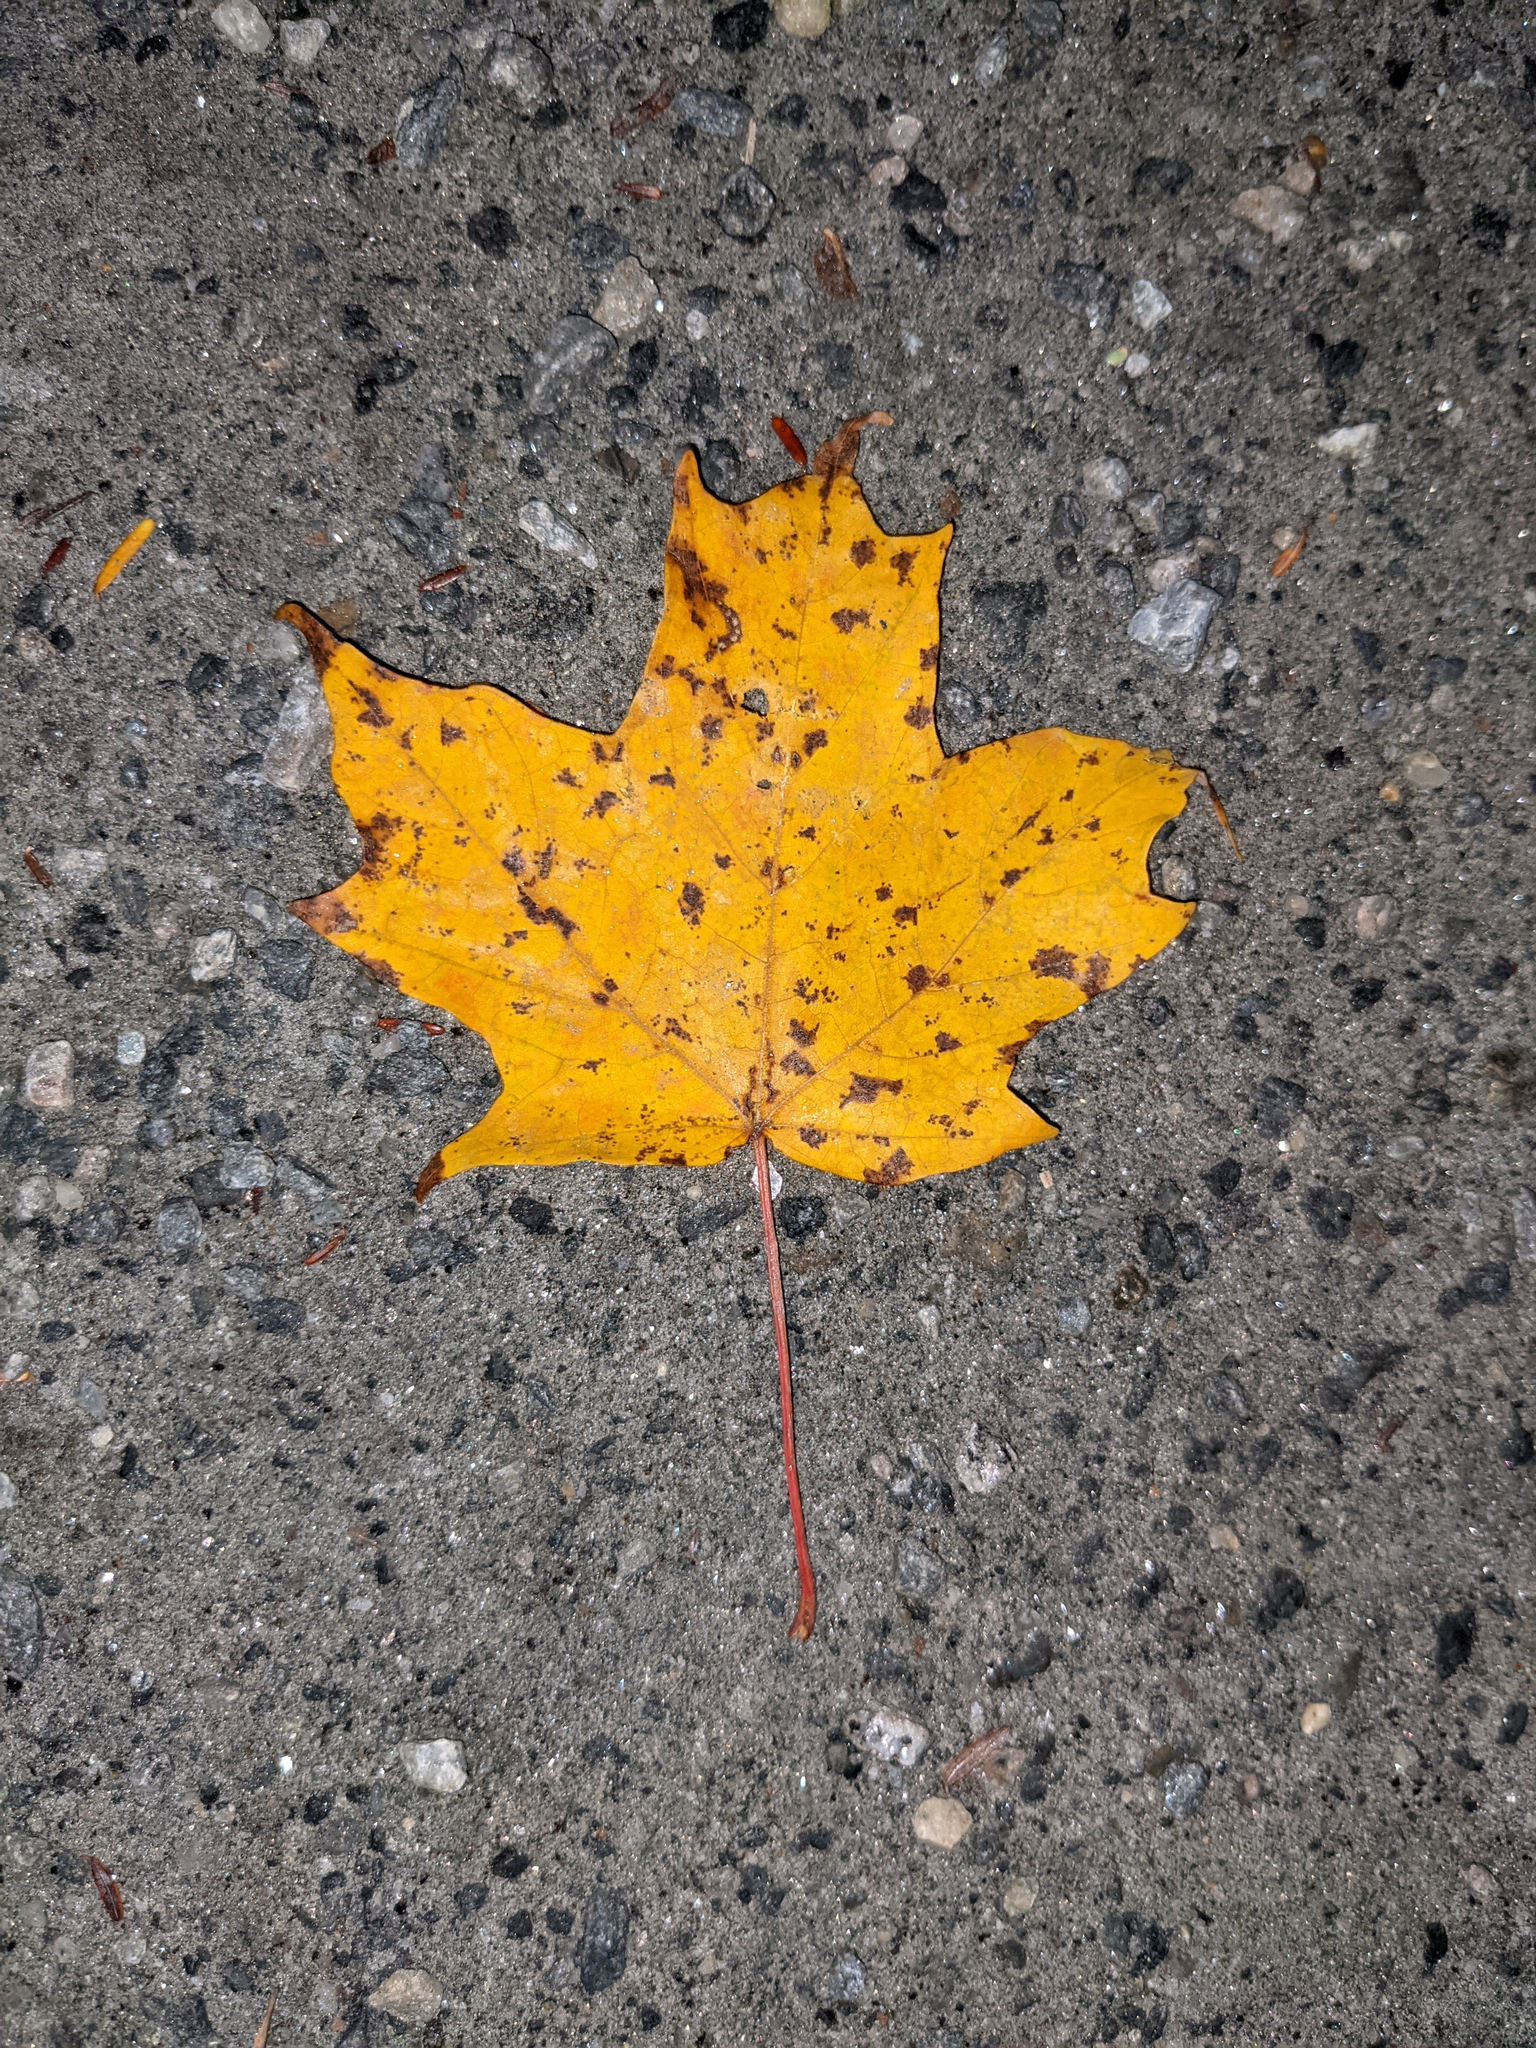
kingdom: Plantae
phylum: Tracheophyta
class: Magnoliopsida
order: Sapindales
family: Sapindaceae
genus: Acer
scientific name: Acer saccharum
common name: Sugar maple
